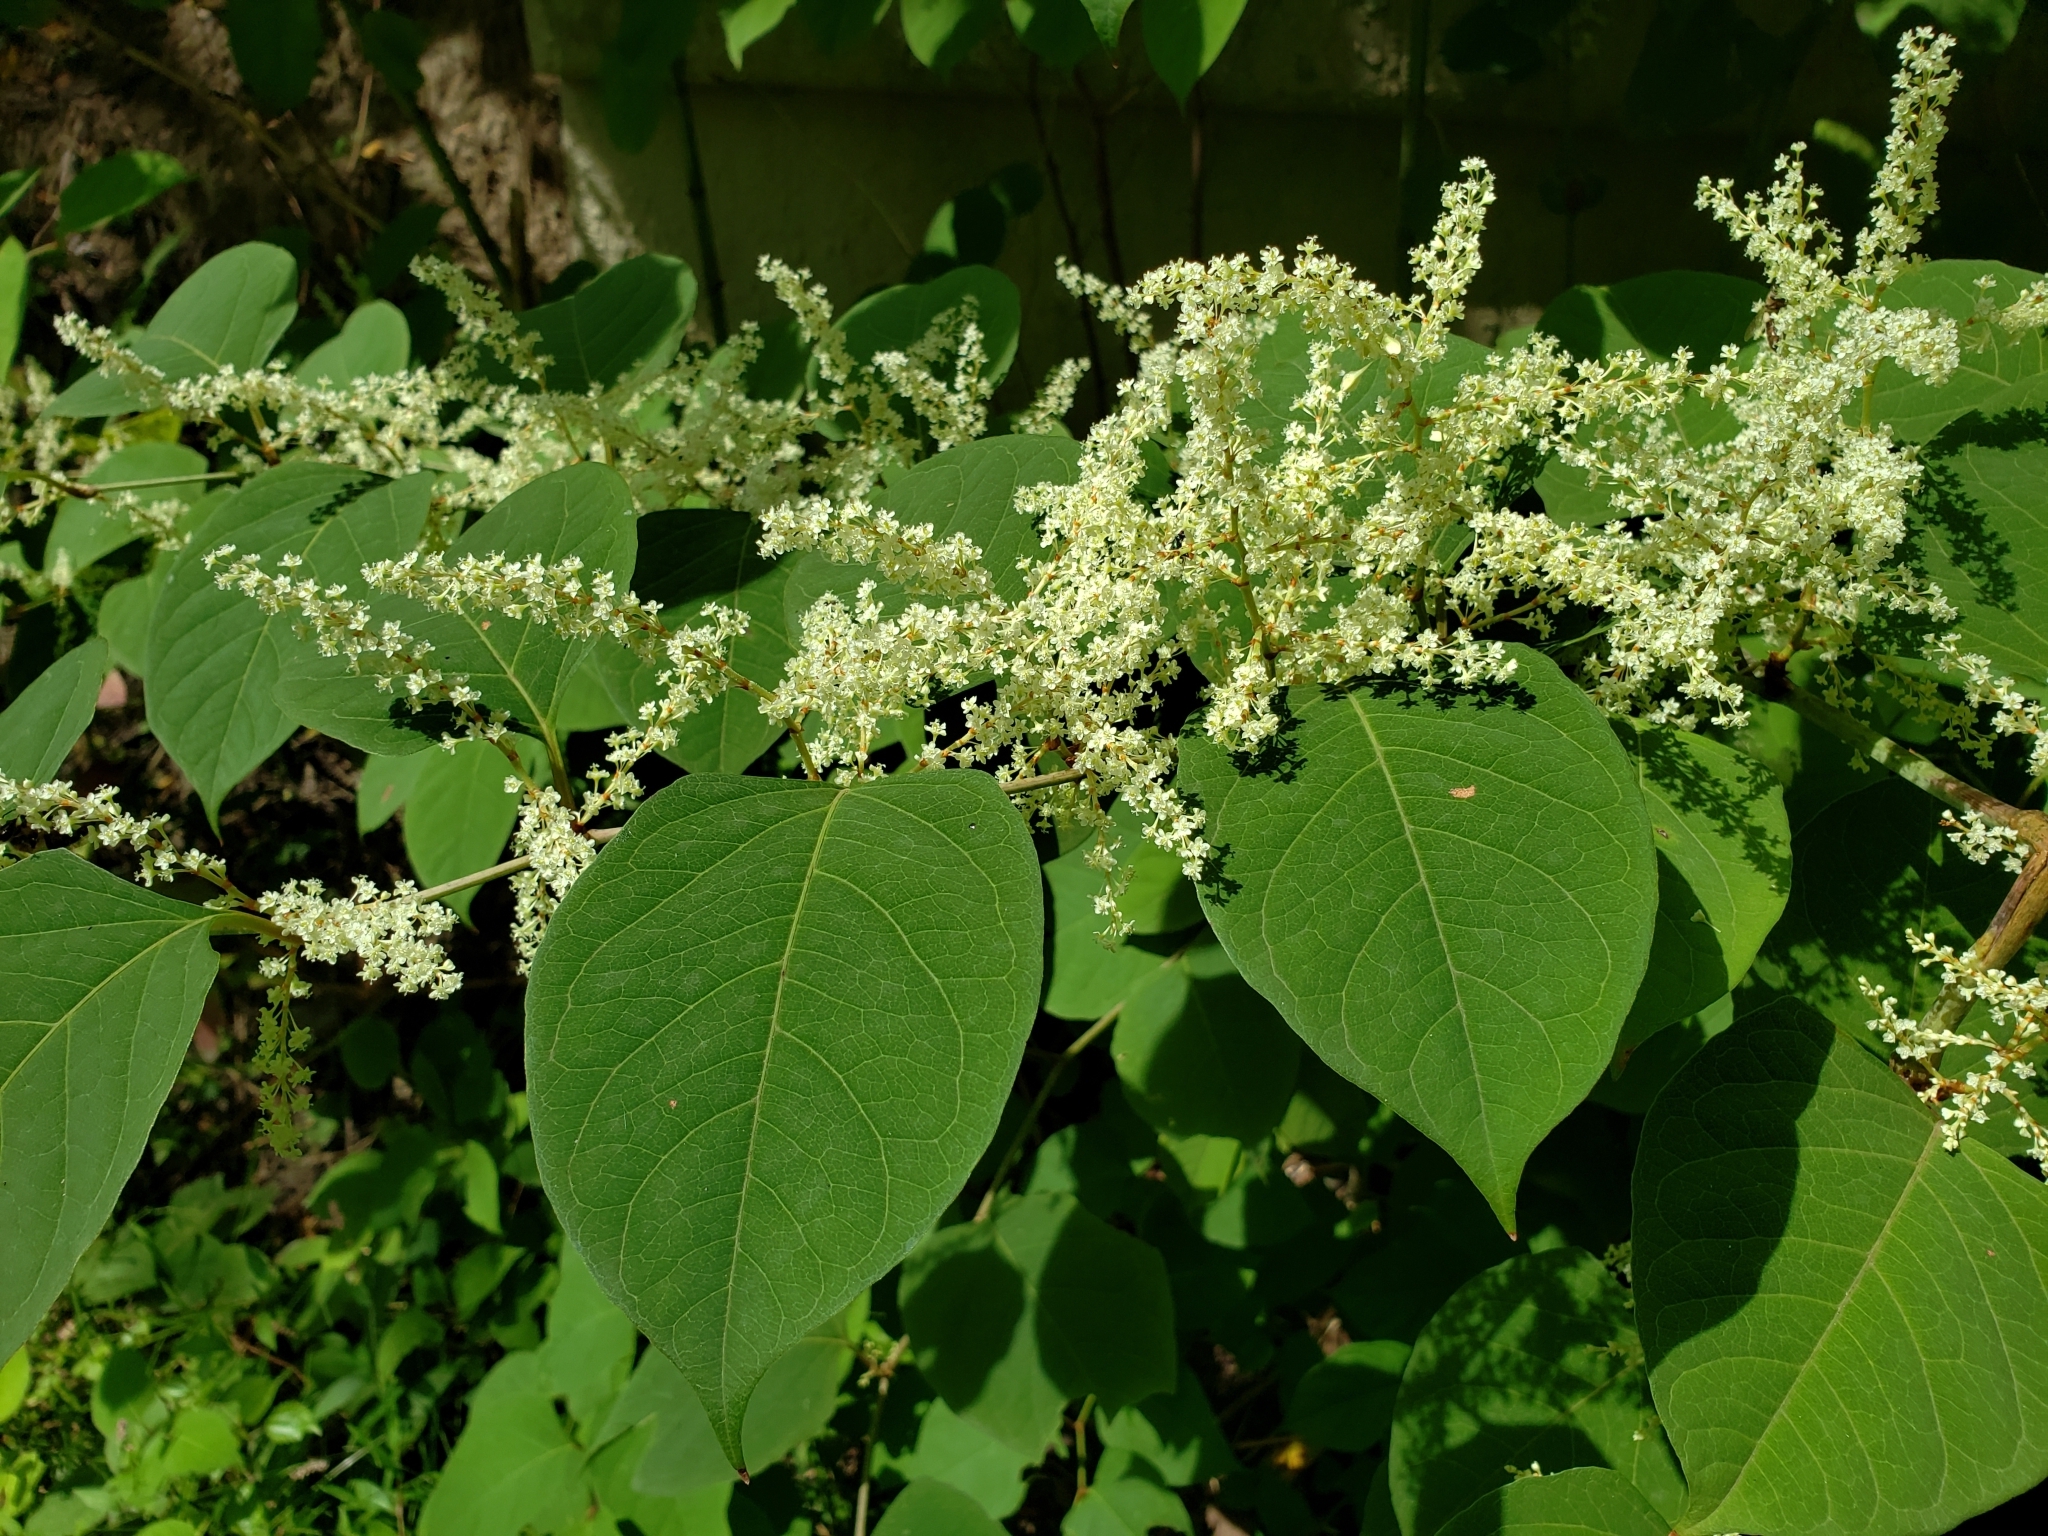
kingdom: Plantae
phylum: Tracheophyta
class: Magnoliopsida
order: Caryophyllales
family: Polygonaceae
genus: Reynoutria
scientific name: Reynoutria japonica
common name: Japanese knotweed
